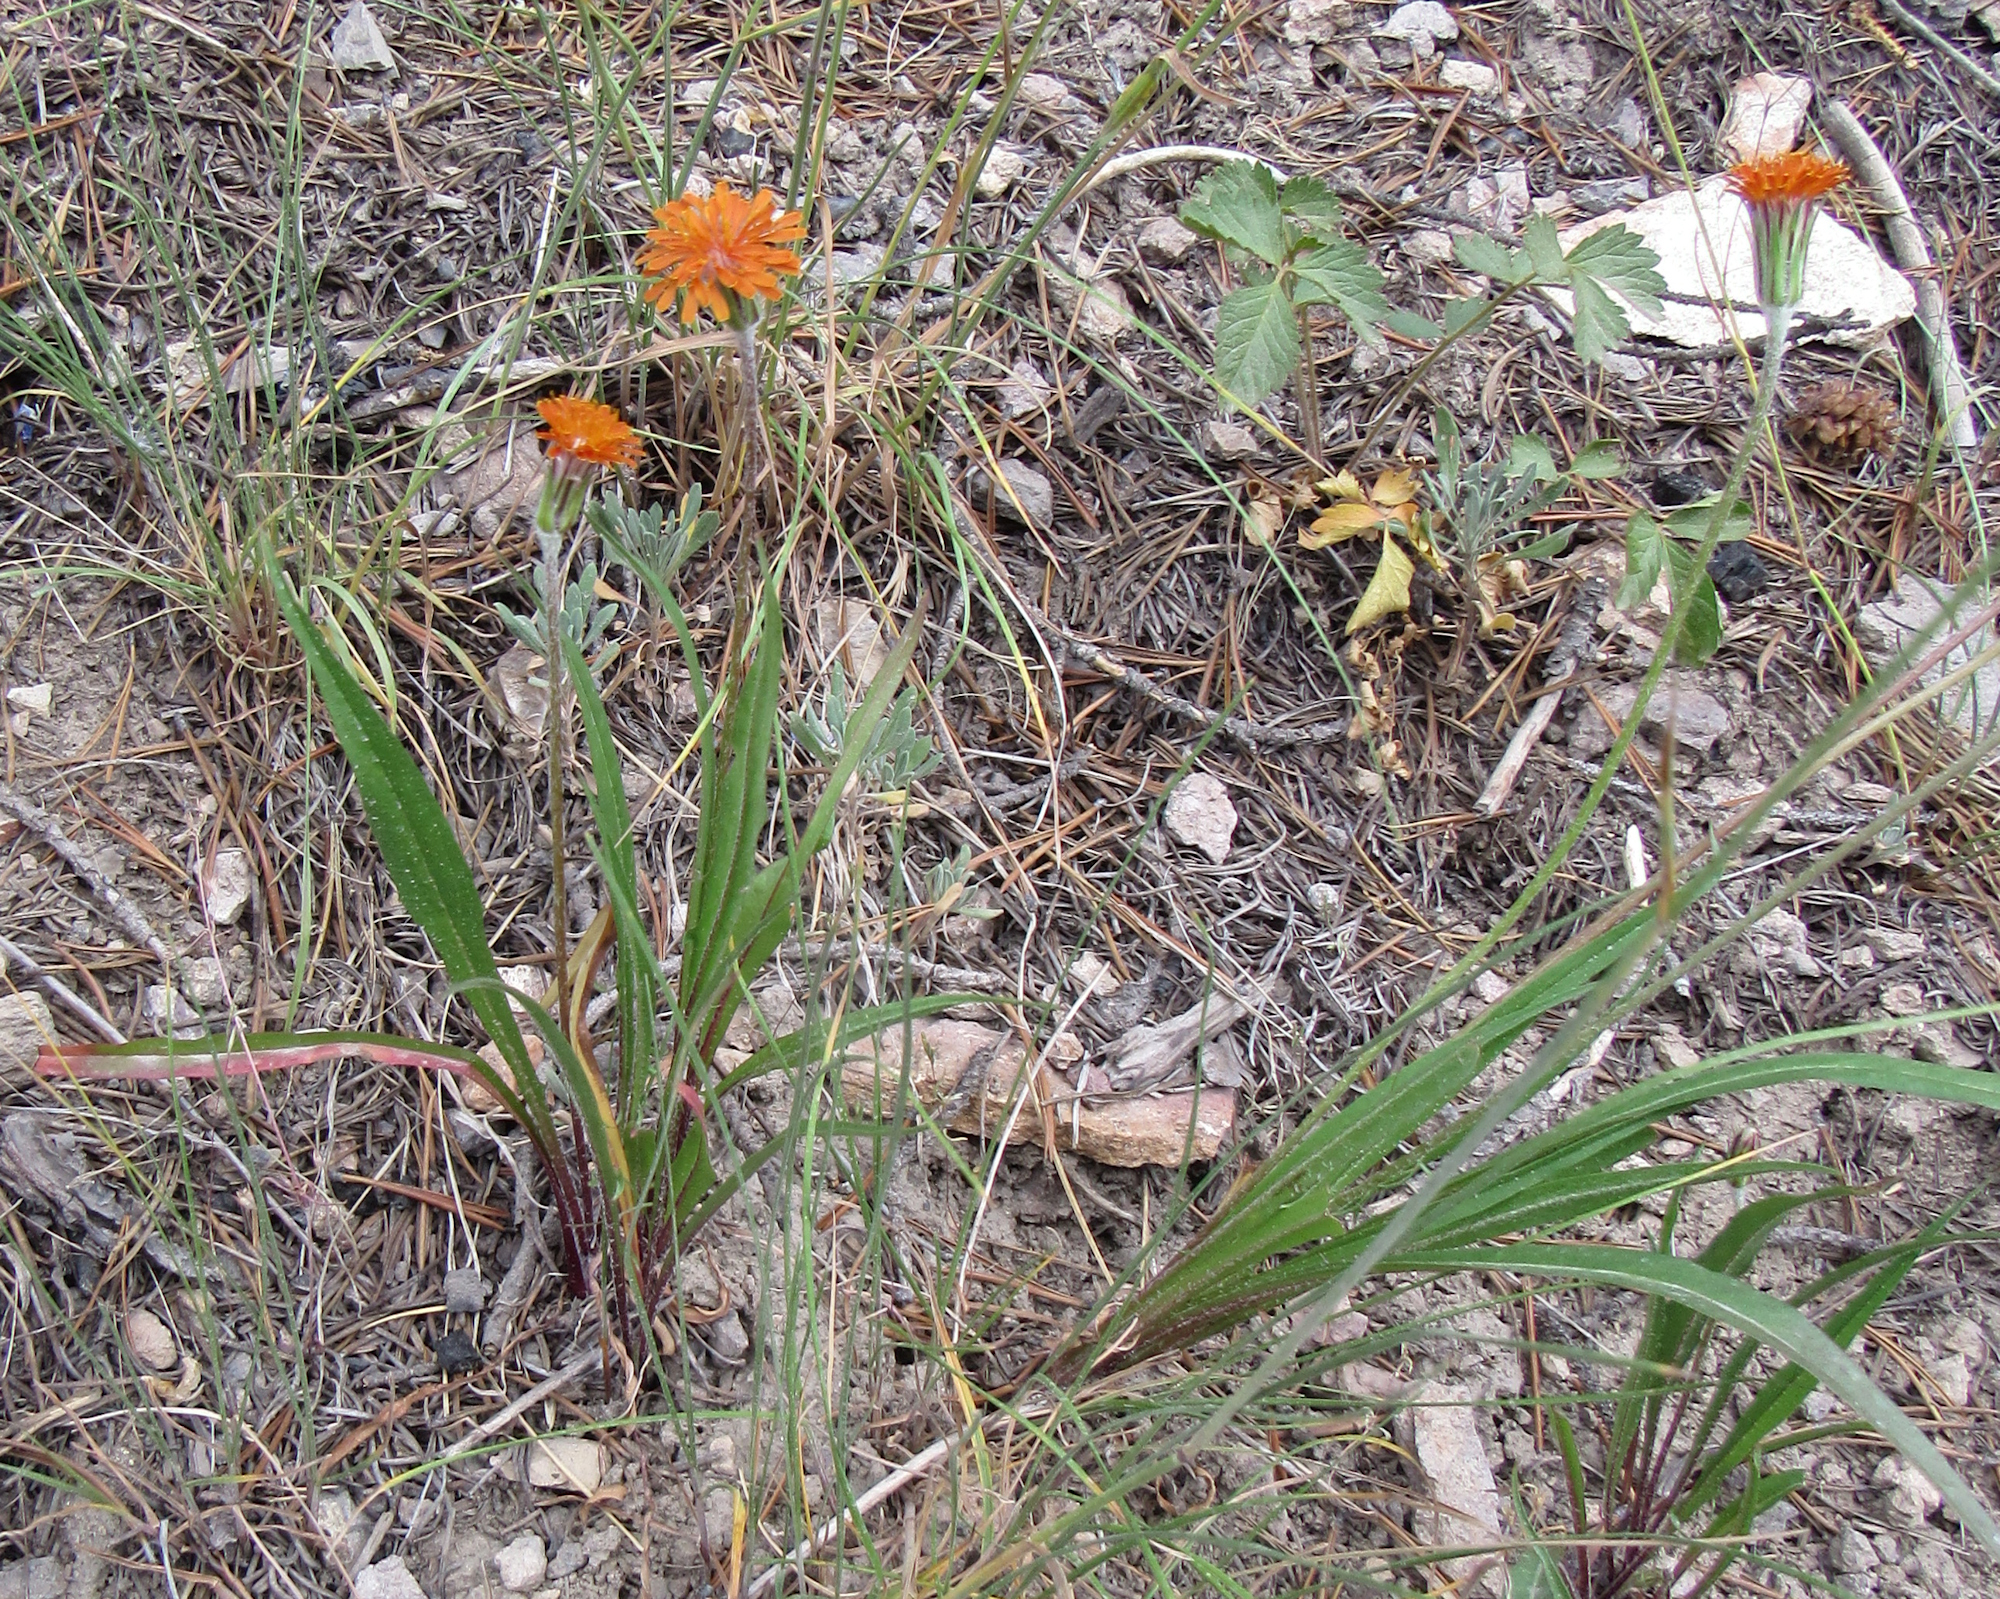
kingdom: Plantae
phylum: Tracheophyta
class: Magnoliopsida
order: Asterales
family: Asteraceae
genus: Agoseris
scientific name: Agoseris aurantiaca
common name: Mountain agoseris
